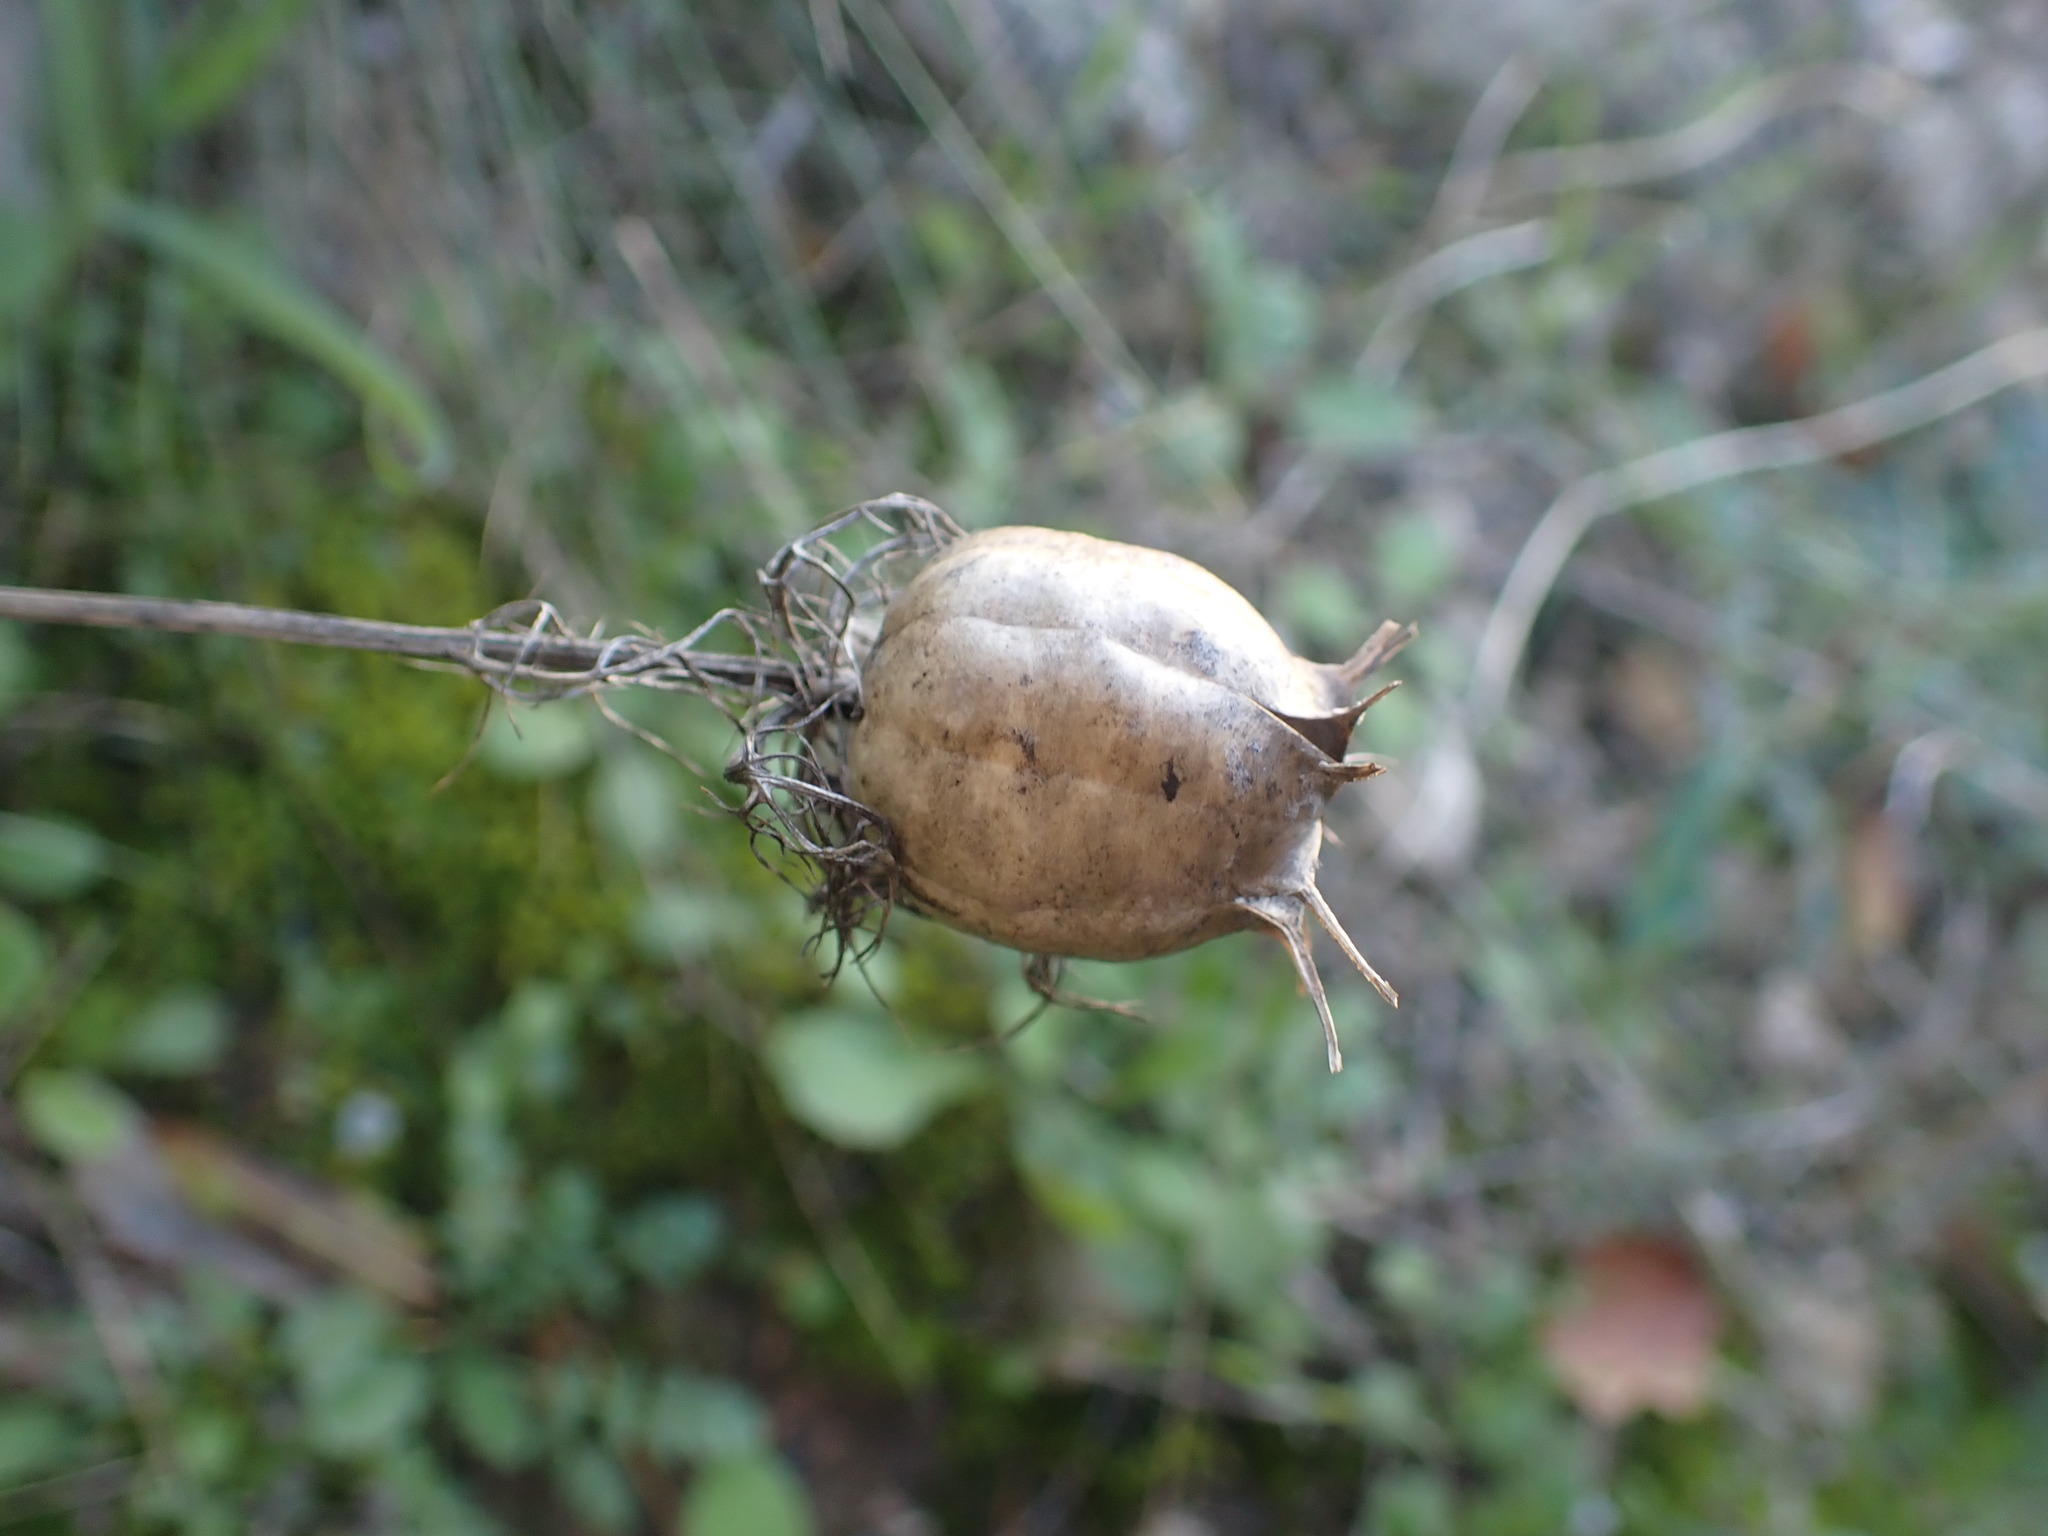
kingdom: Plantae
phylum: Tracheophyta
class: Magnoliopsida
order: Ranunculales
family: Ranunculaceae
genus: Nigella
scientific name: Nigella damascena
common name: Love-in-a-mist
